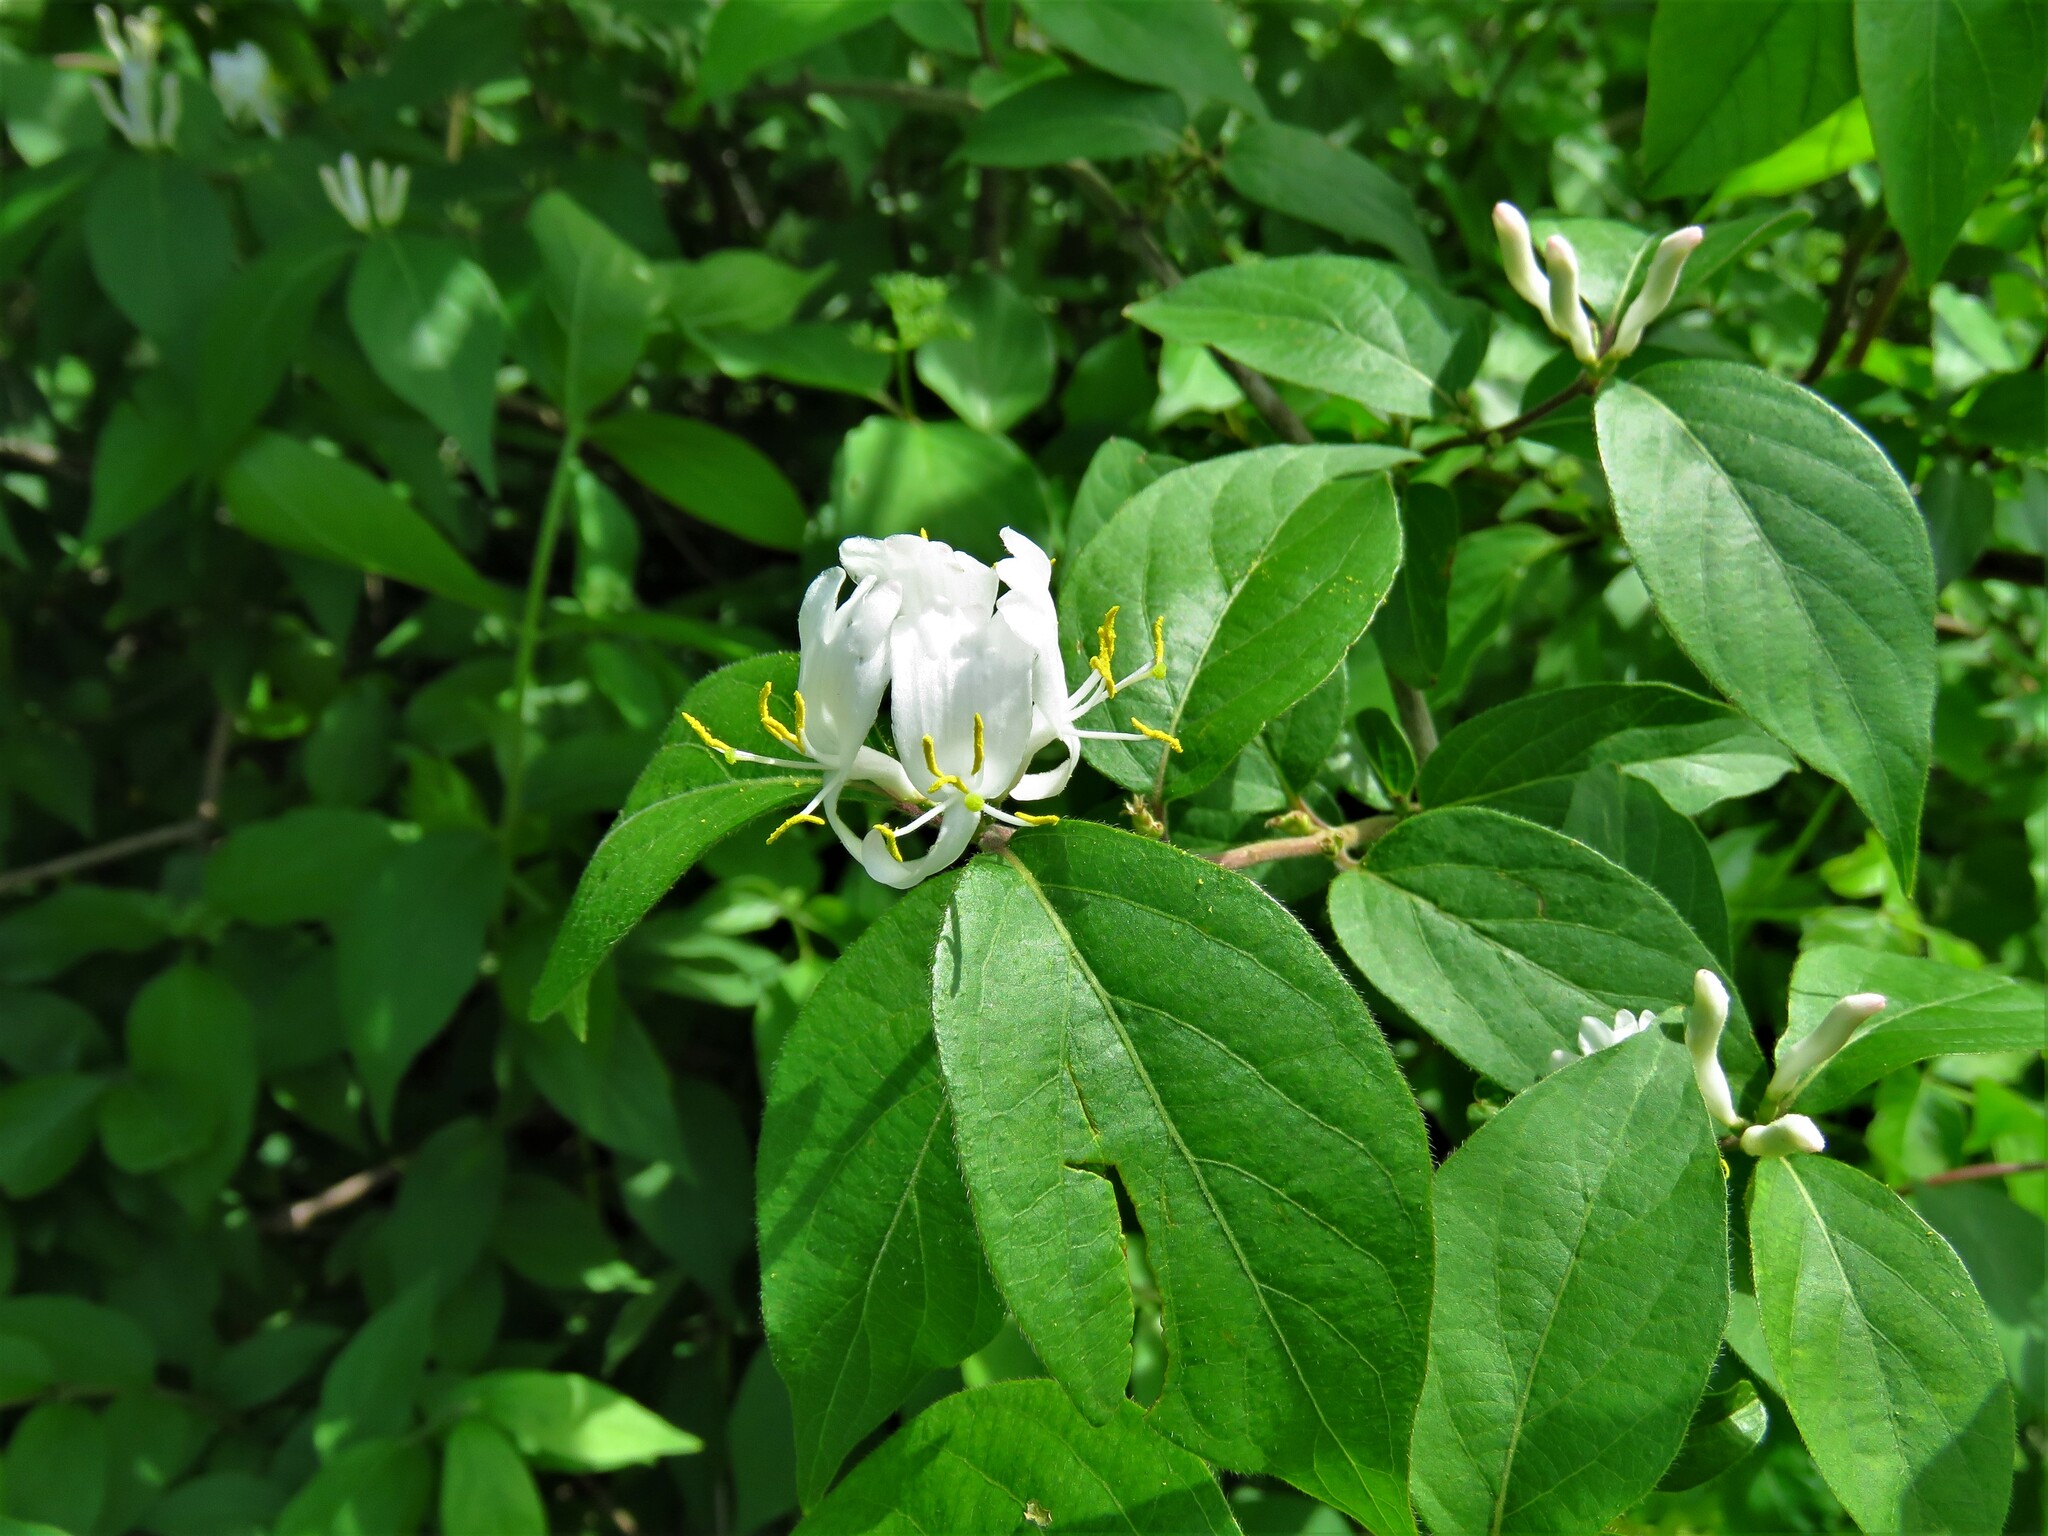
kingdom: Plantae
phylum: Tracheophyta
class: Magnoliopsida
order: Dipsacales
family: Caprifoliaceae
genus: Lonicera
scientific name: Lonicera maackii
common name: Amur honeysuckle
